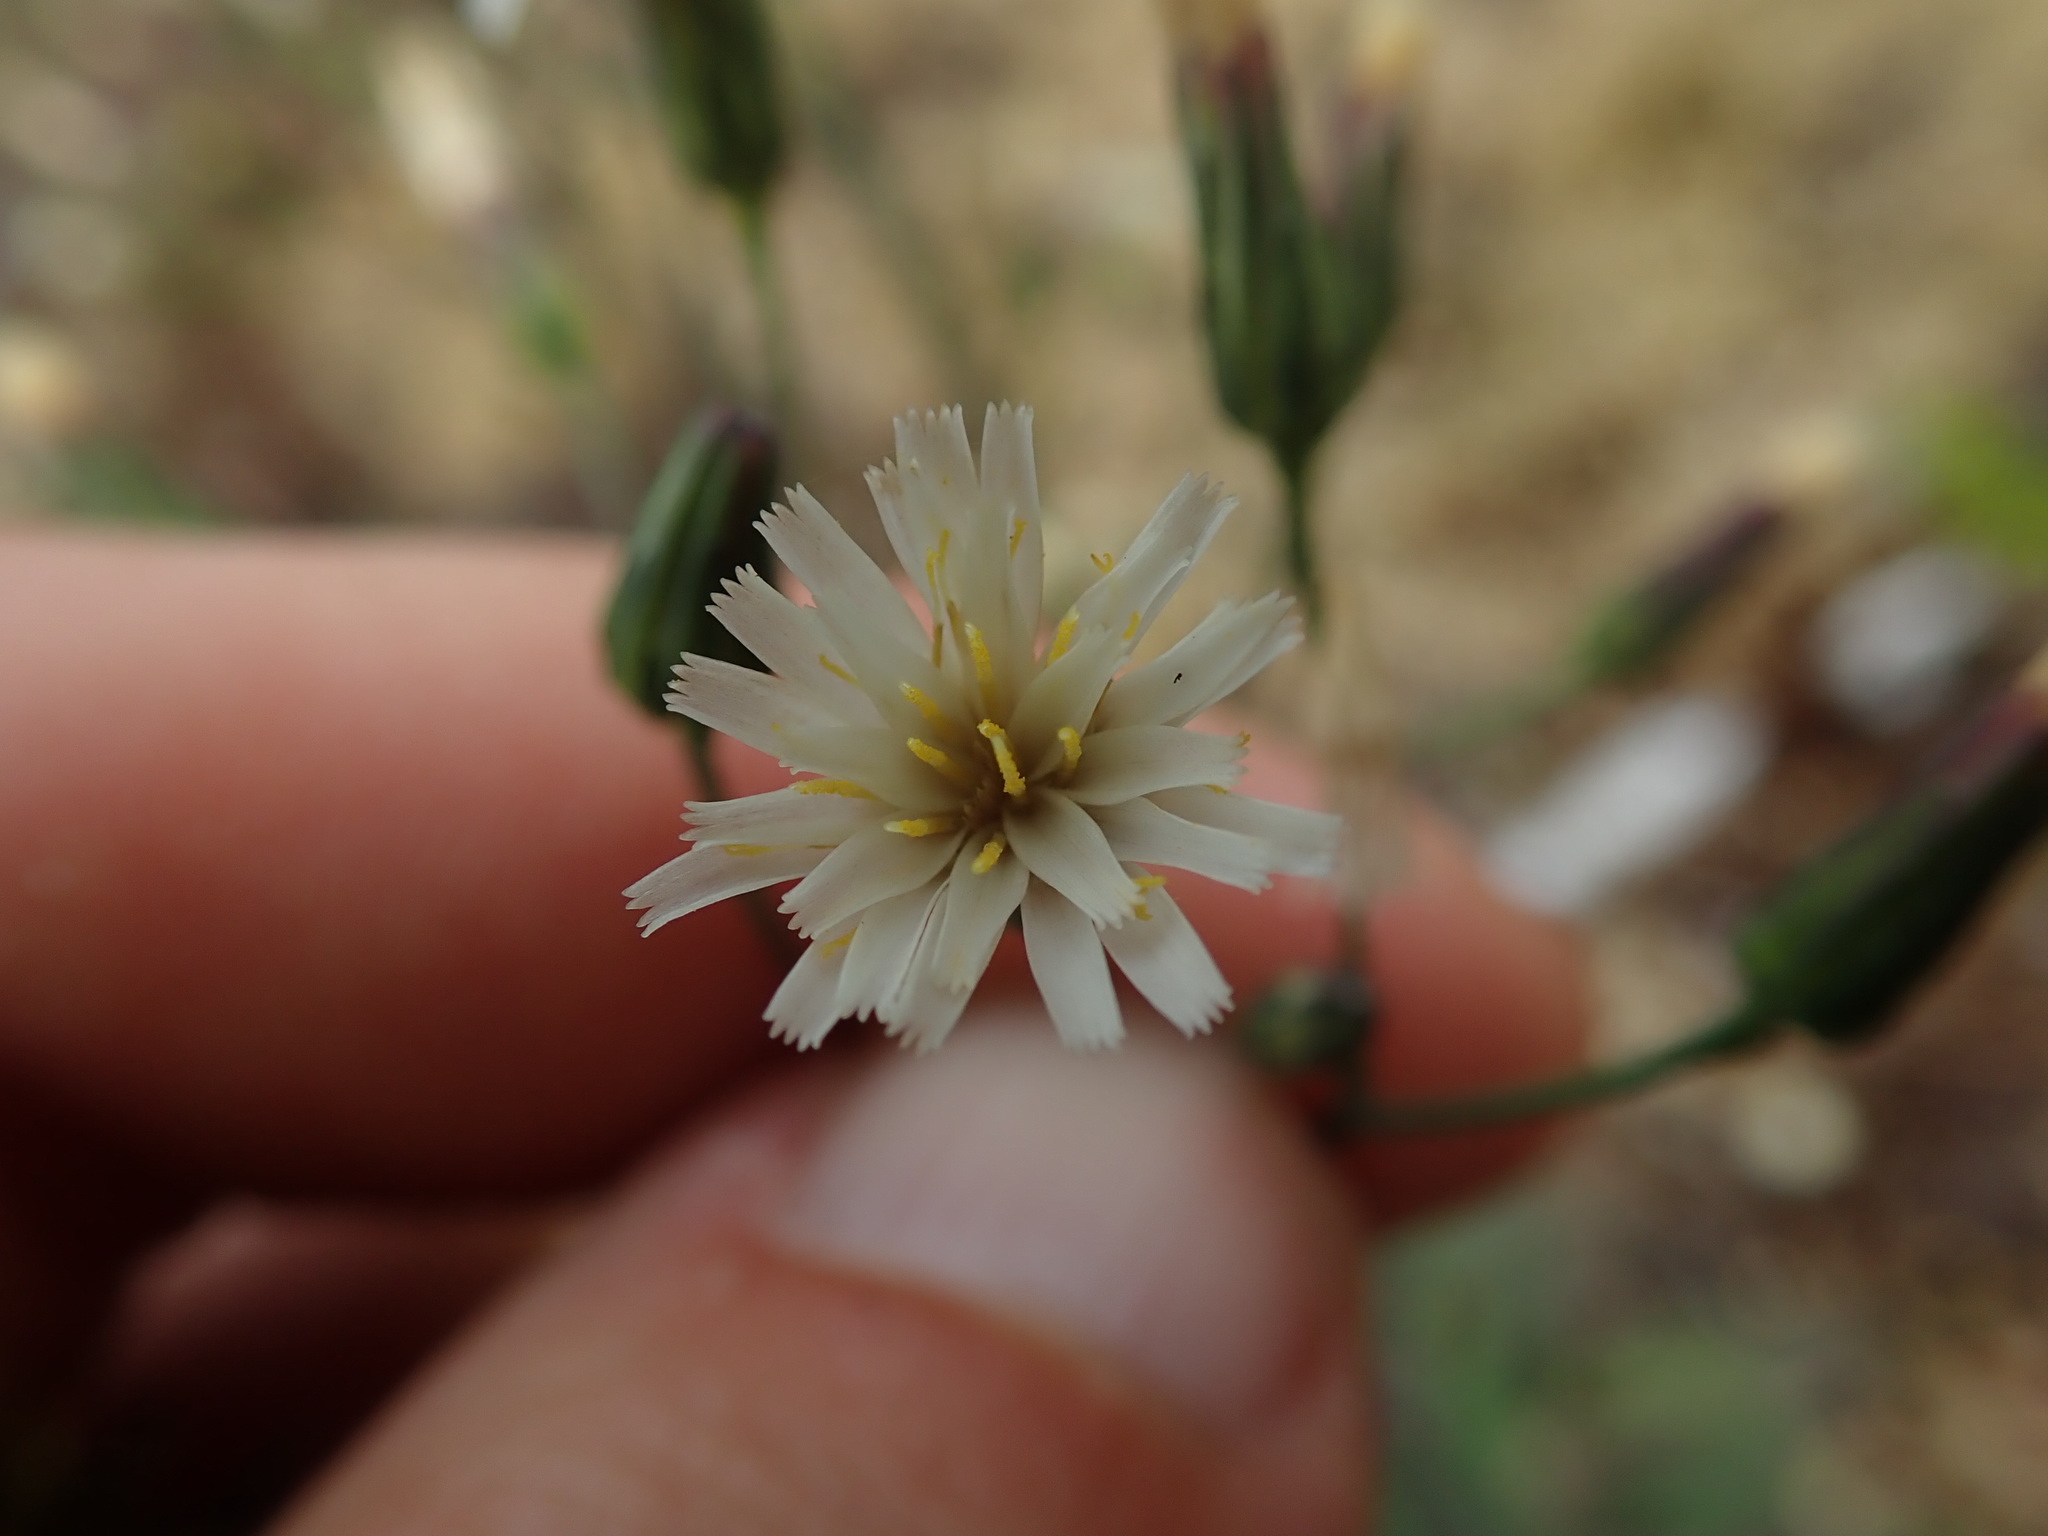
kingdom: Plantae
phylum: Tracheophyta
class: Magnoliopsida
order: Asterales
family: Asteraceae
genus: Hieracium
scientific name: Hieracium albiflorum
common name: White hawkweed
